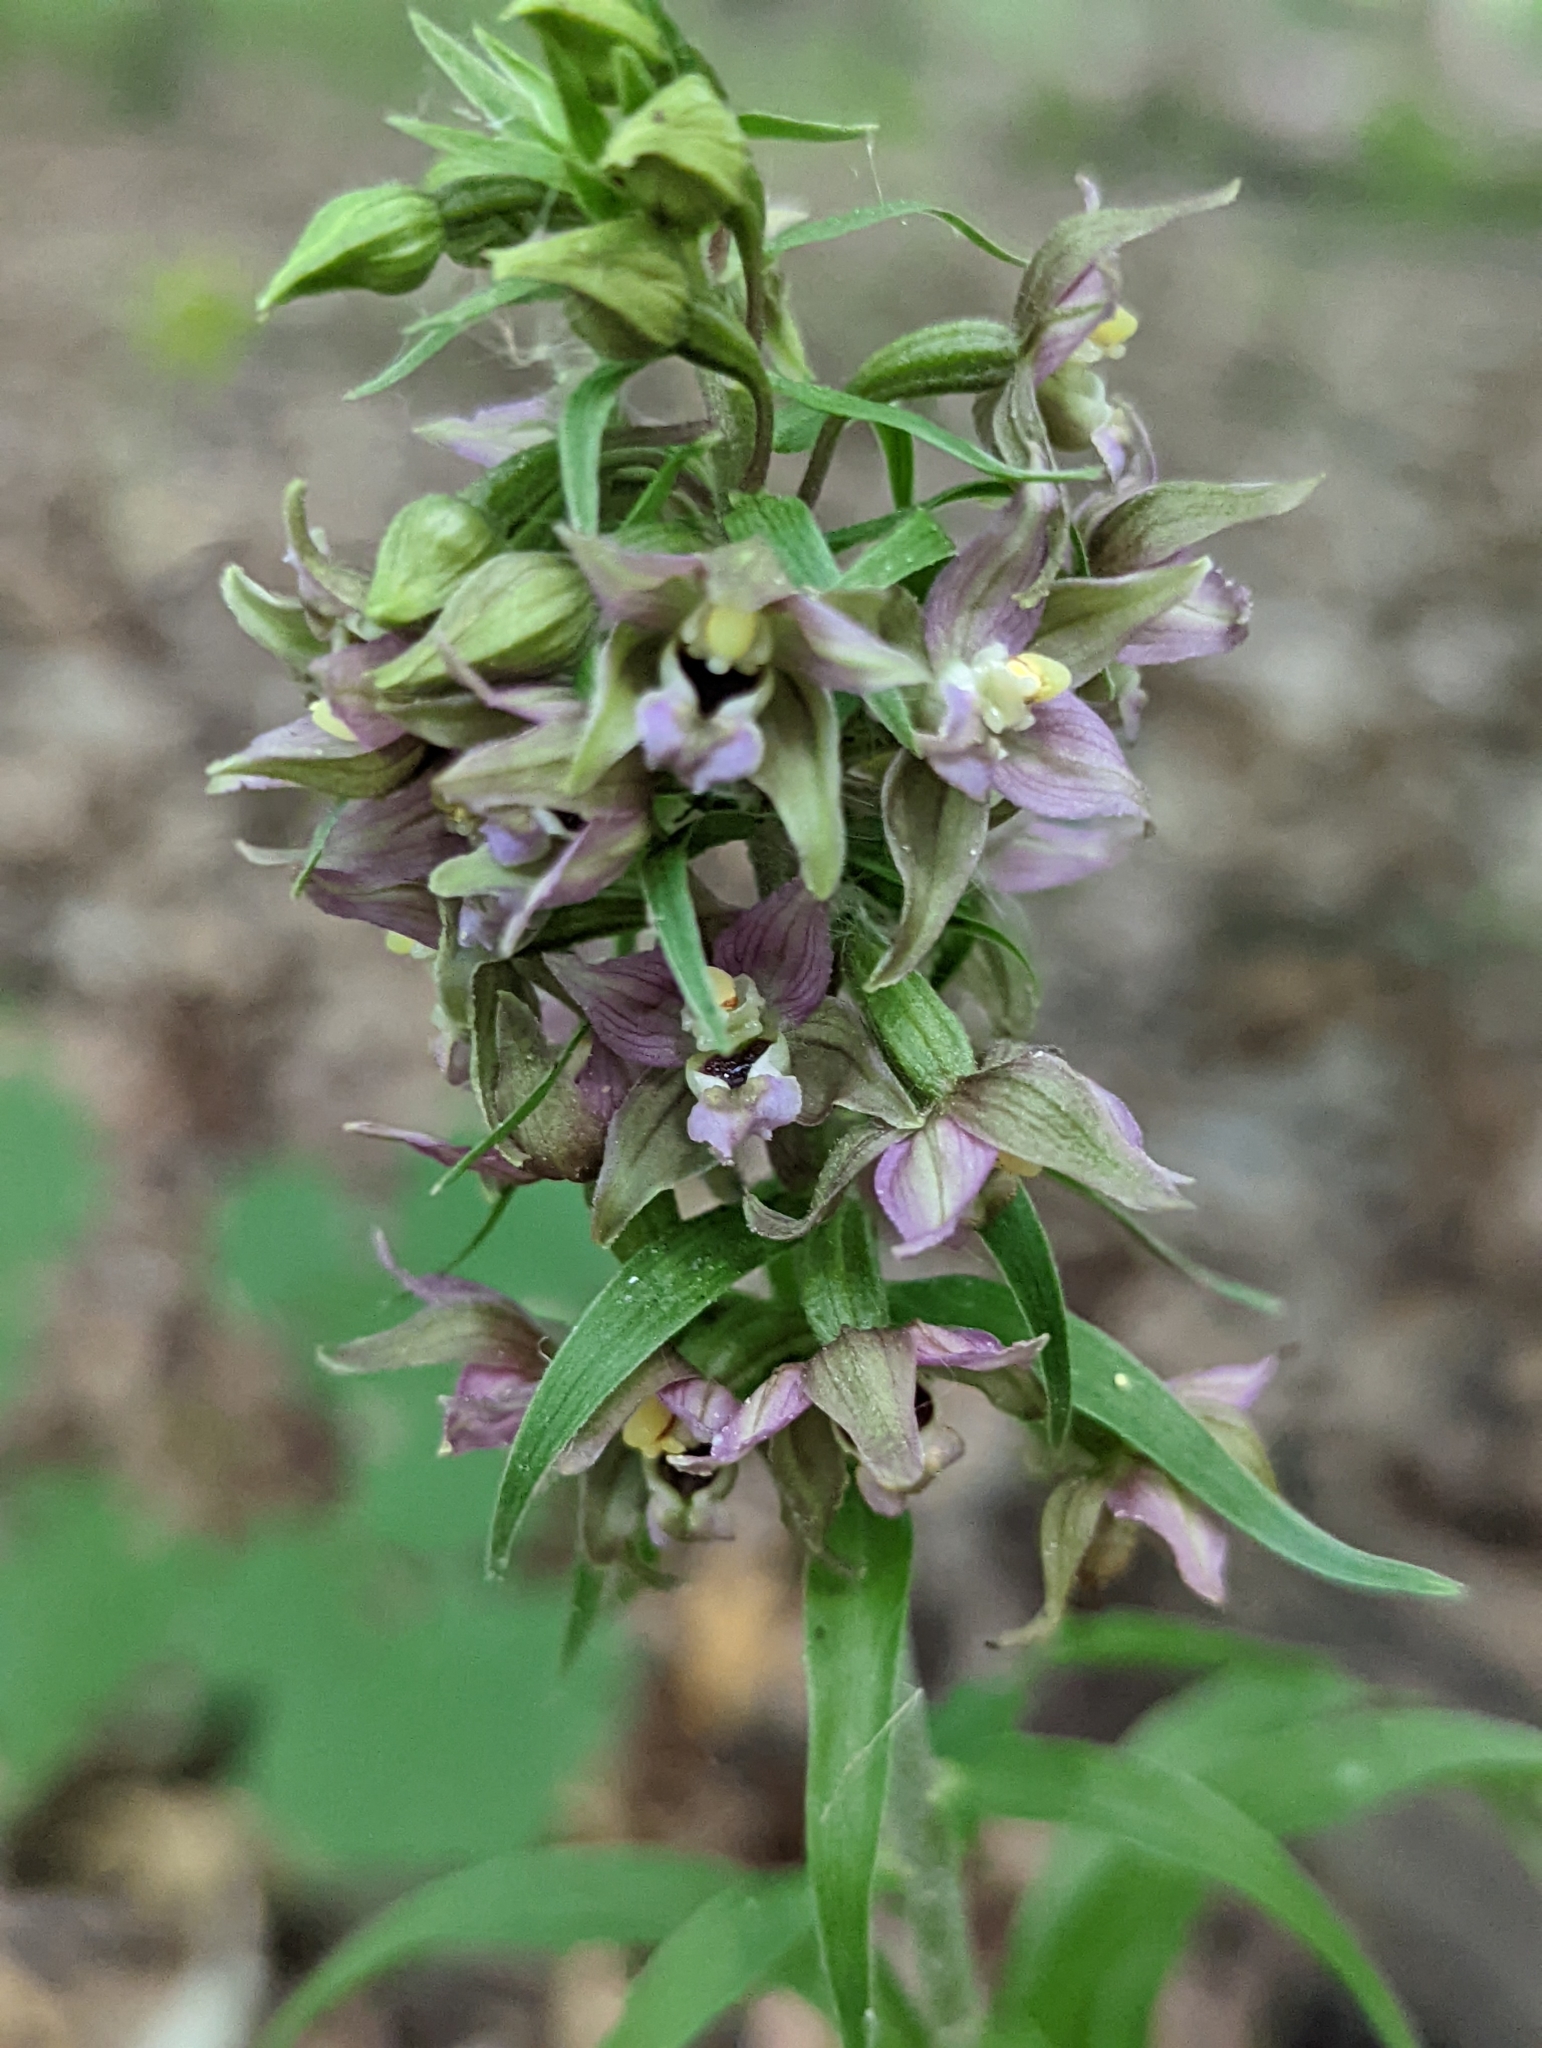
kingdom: Plantae
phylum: Tracheophyta
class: Liliopsida
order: Asparagales
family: Orchidaceae
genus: Epipactis
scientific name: Epipactis helleborine
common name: Broad-leaved helleborine
